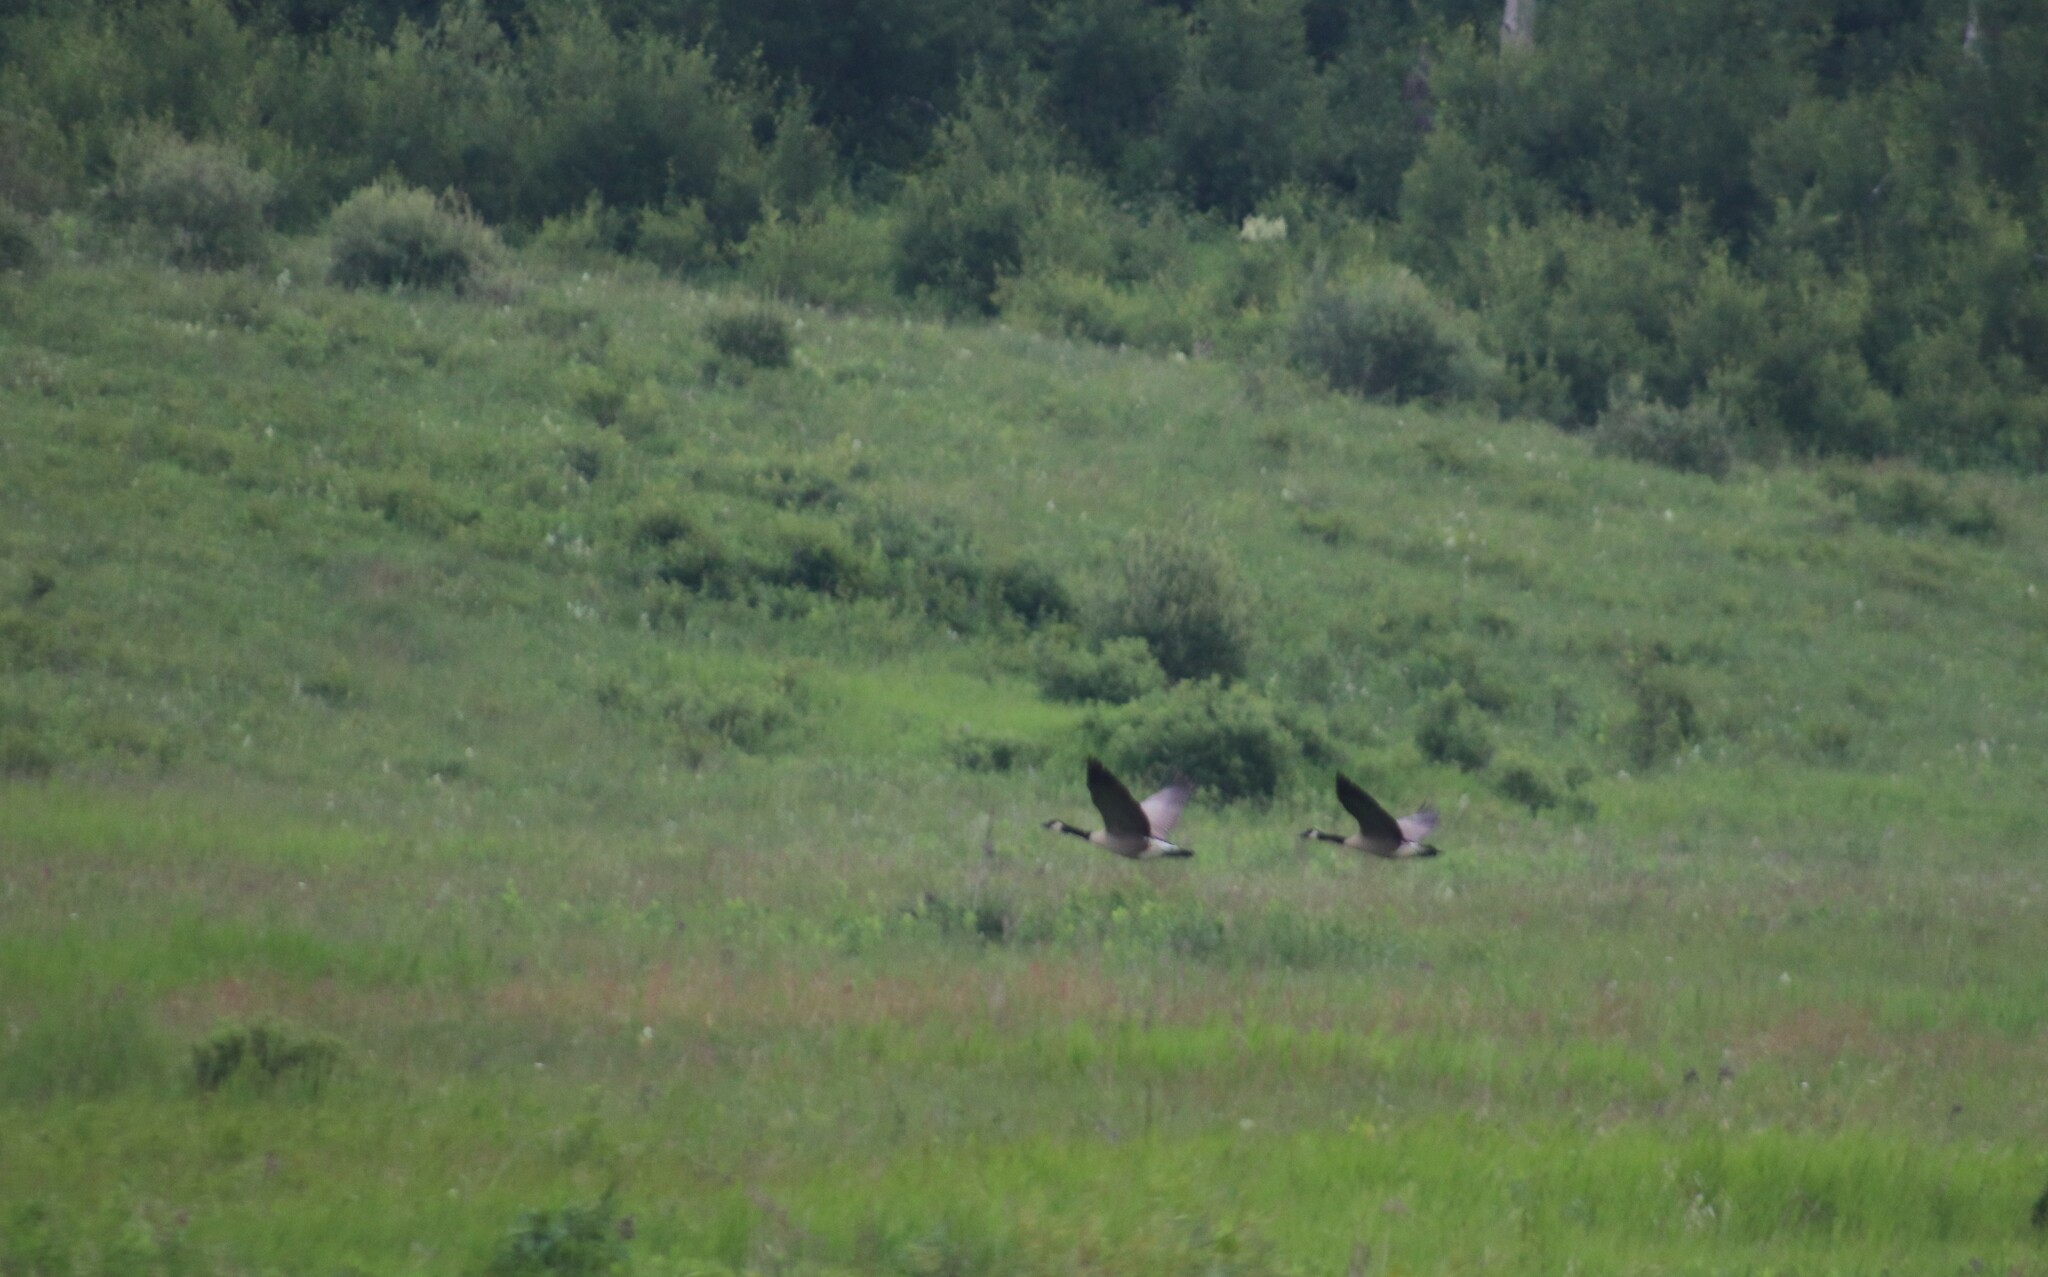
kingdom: Animalia
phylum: Chordata
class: Aves
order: Anseriformes
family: Anatidae
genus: Branta
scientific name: Branta canadensis
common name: Canada goose
